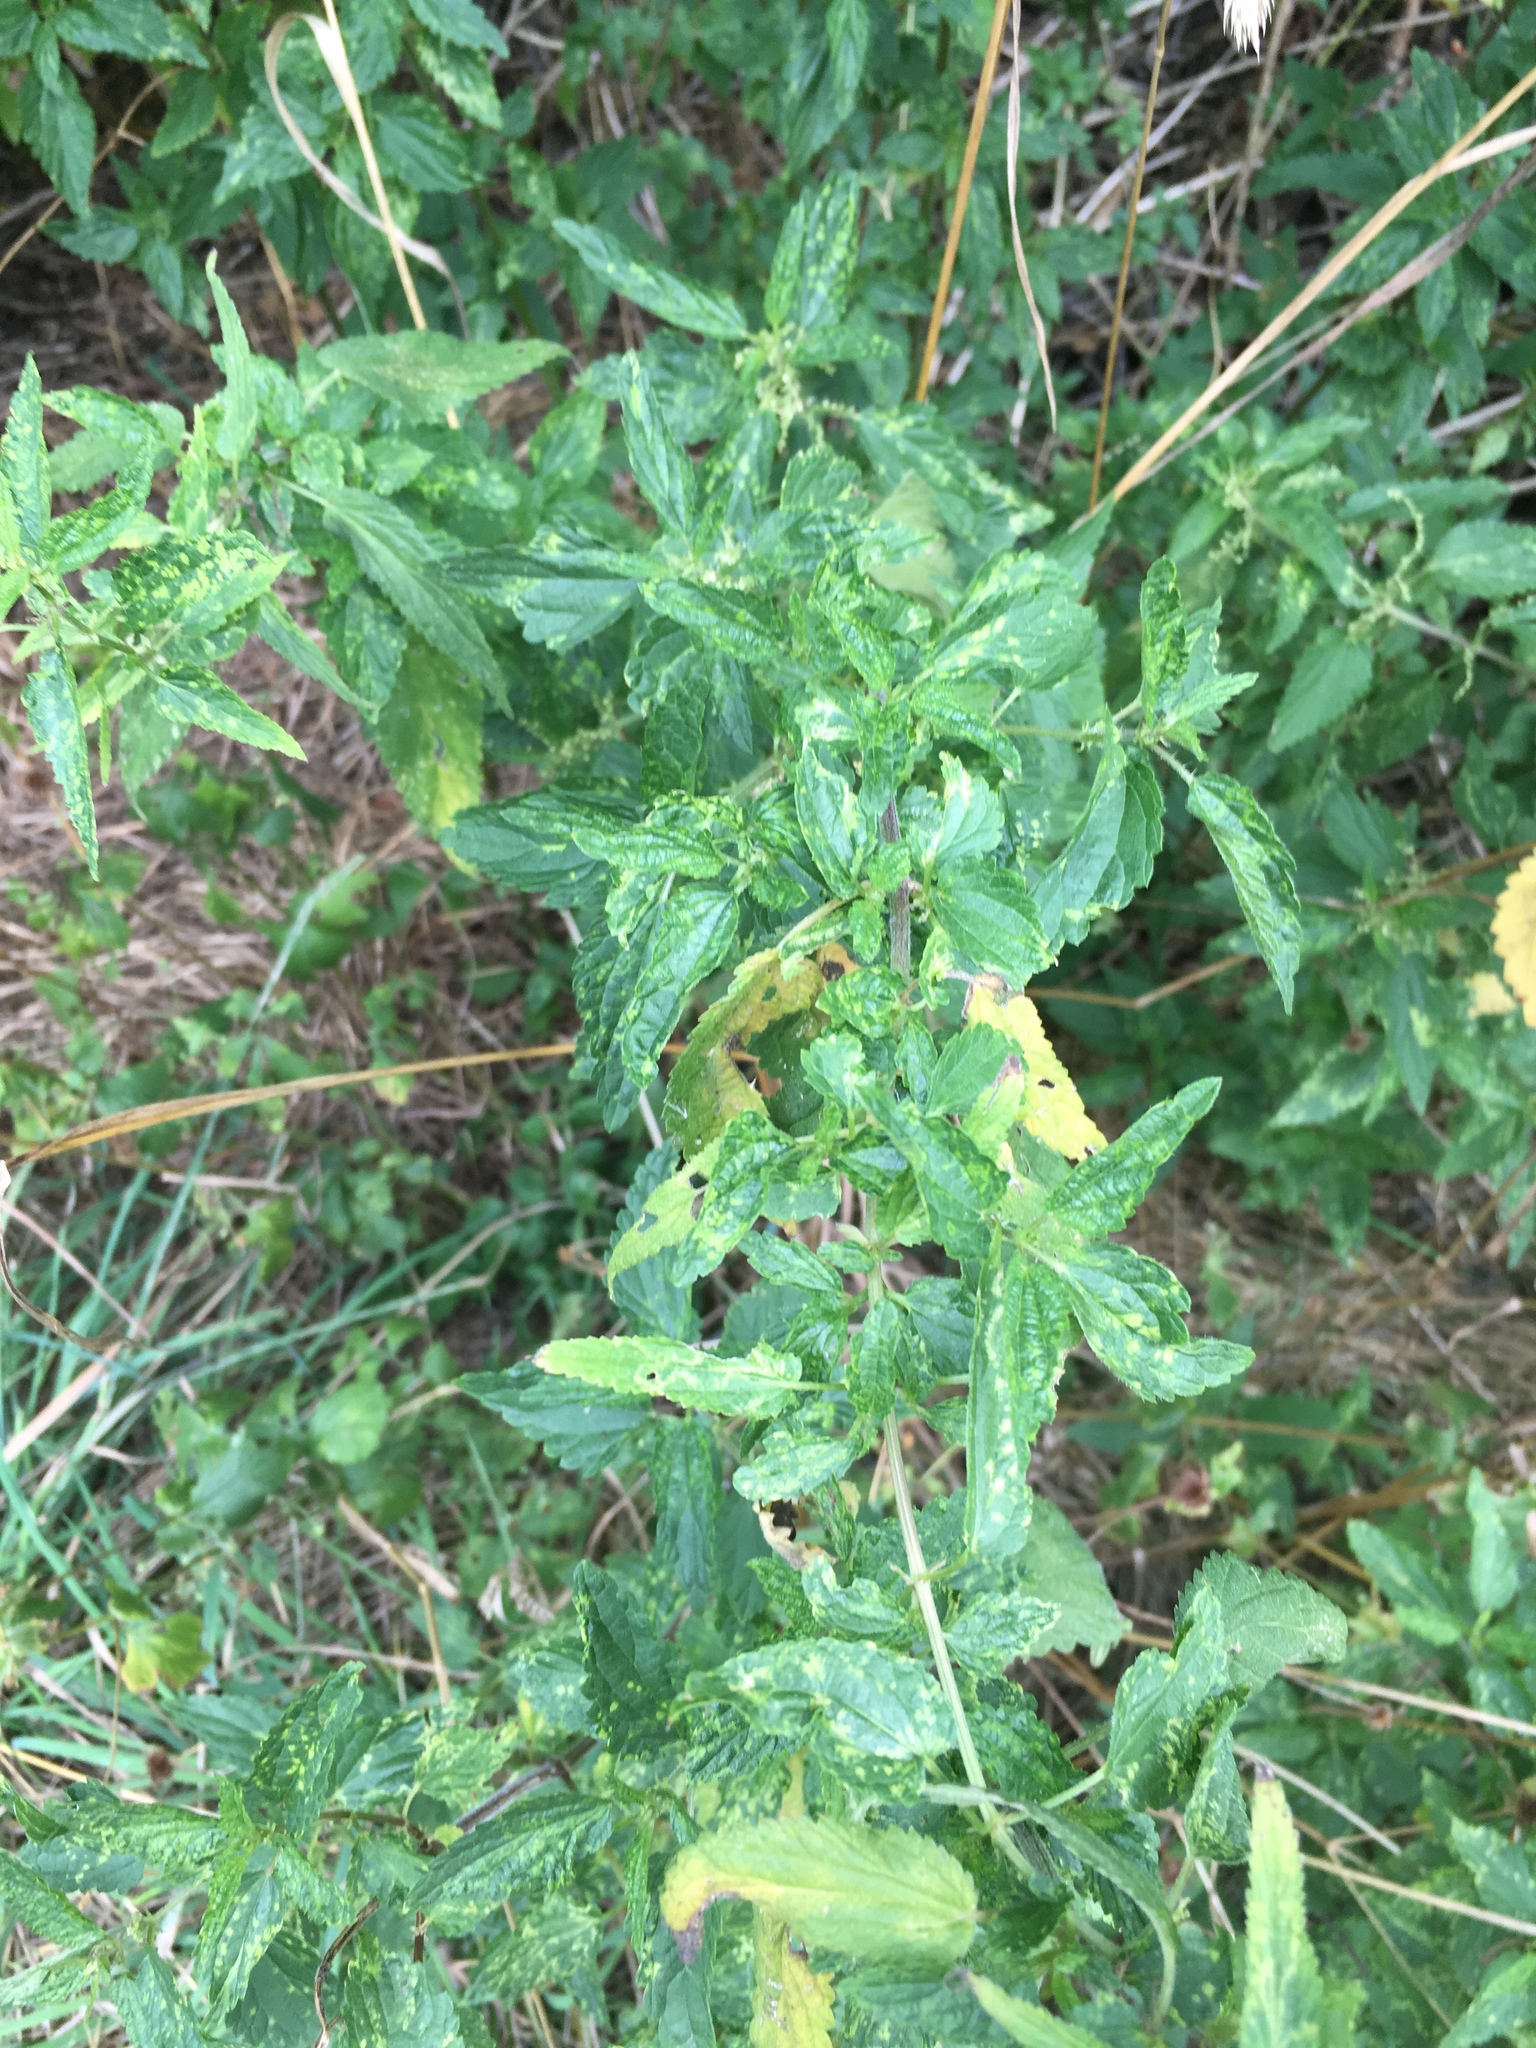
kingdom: Plantae
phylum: Tracheophyta
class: Magnoliopsida
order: Rosales
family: Urticaceae
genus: Urtica
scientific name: Urtica dioica
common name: Common nettle
